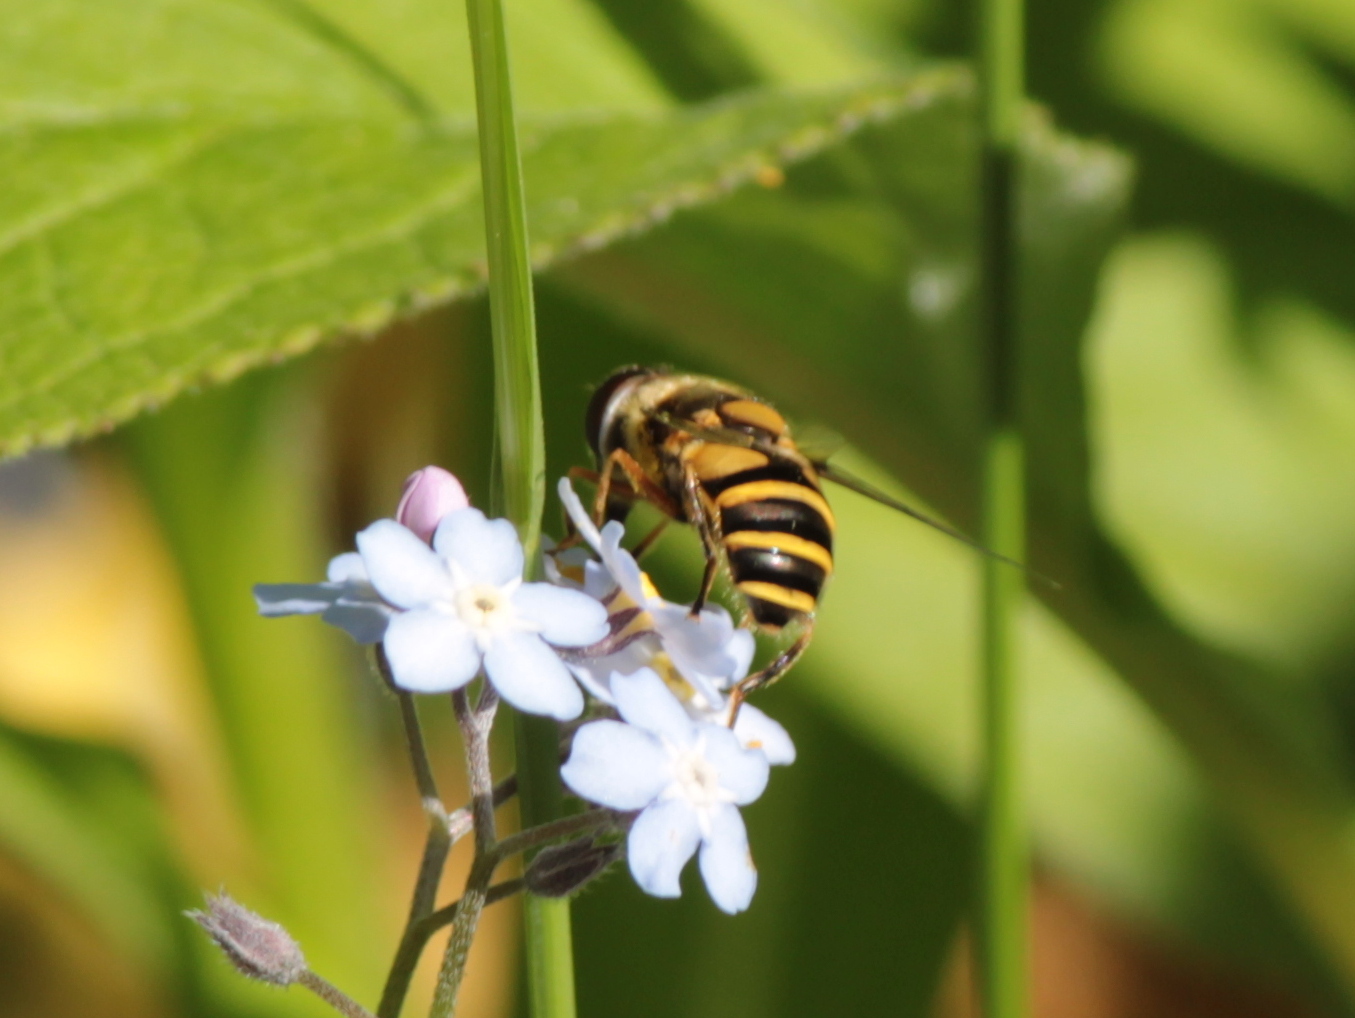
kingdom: Animalia
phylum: Arthropoda
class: Insecta
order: Diptera
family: Syrphidae
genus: Eristalis
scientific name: Eristalis transversa
